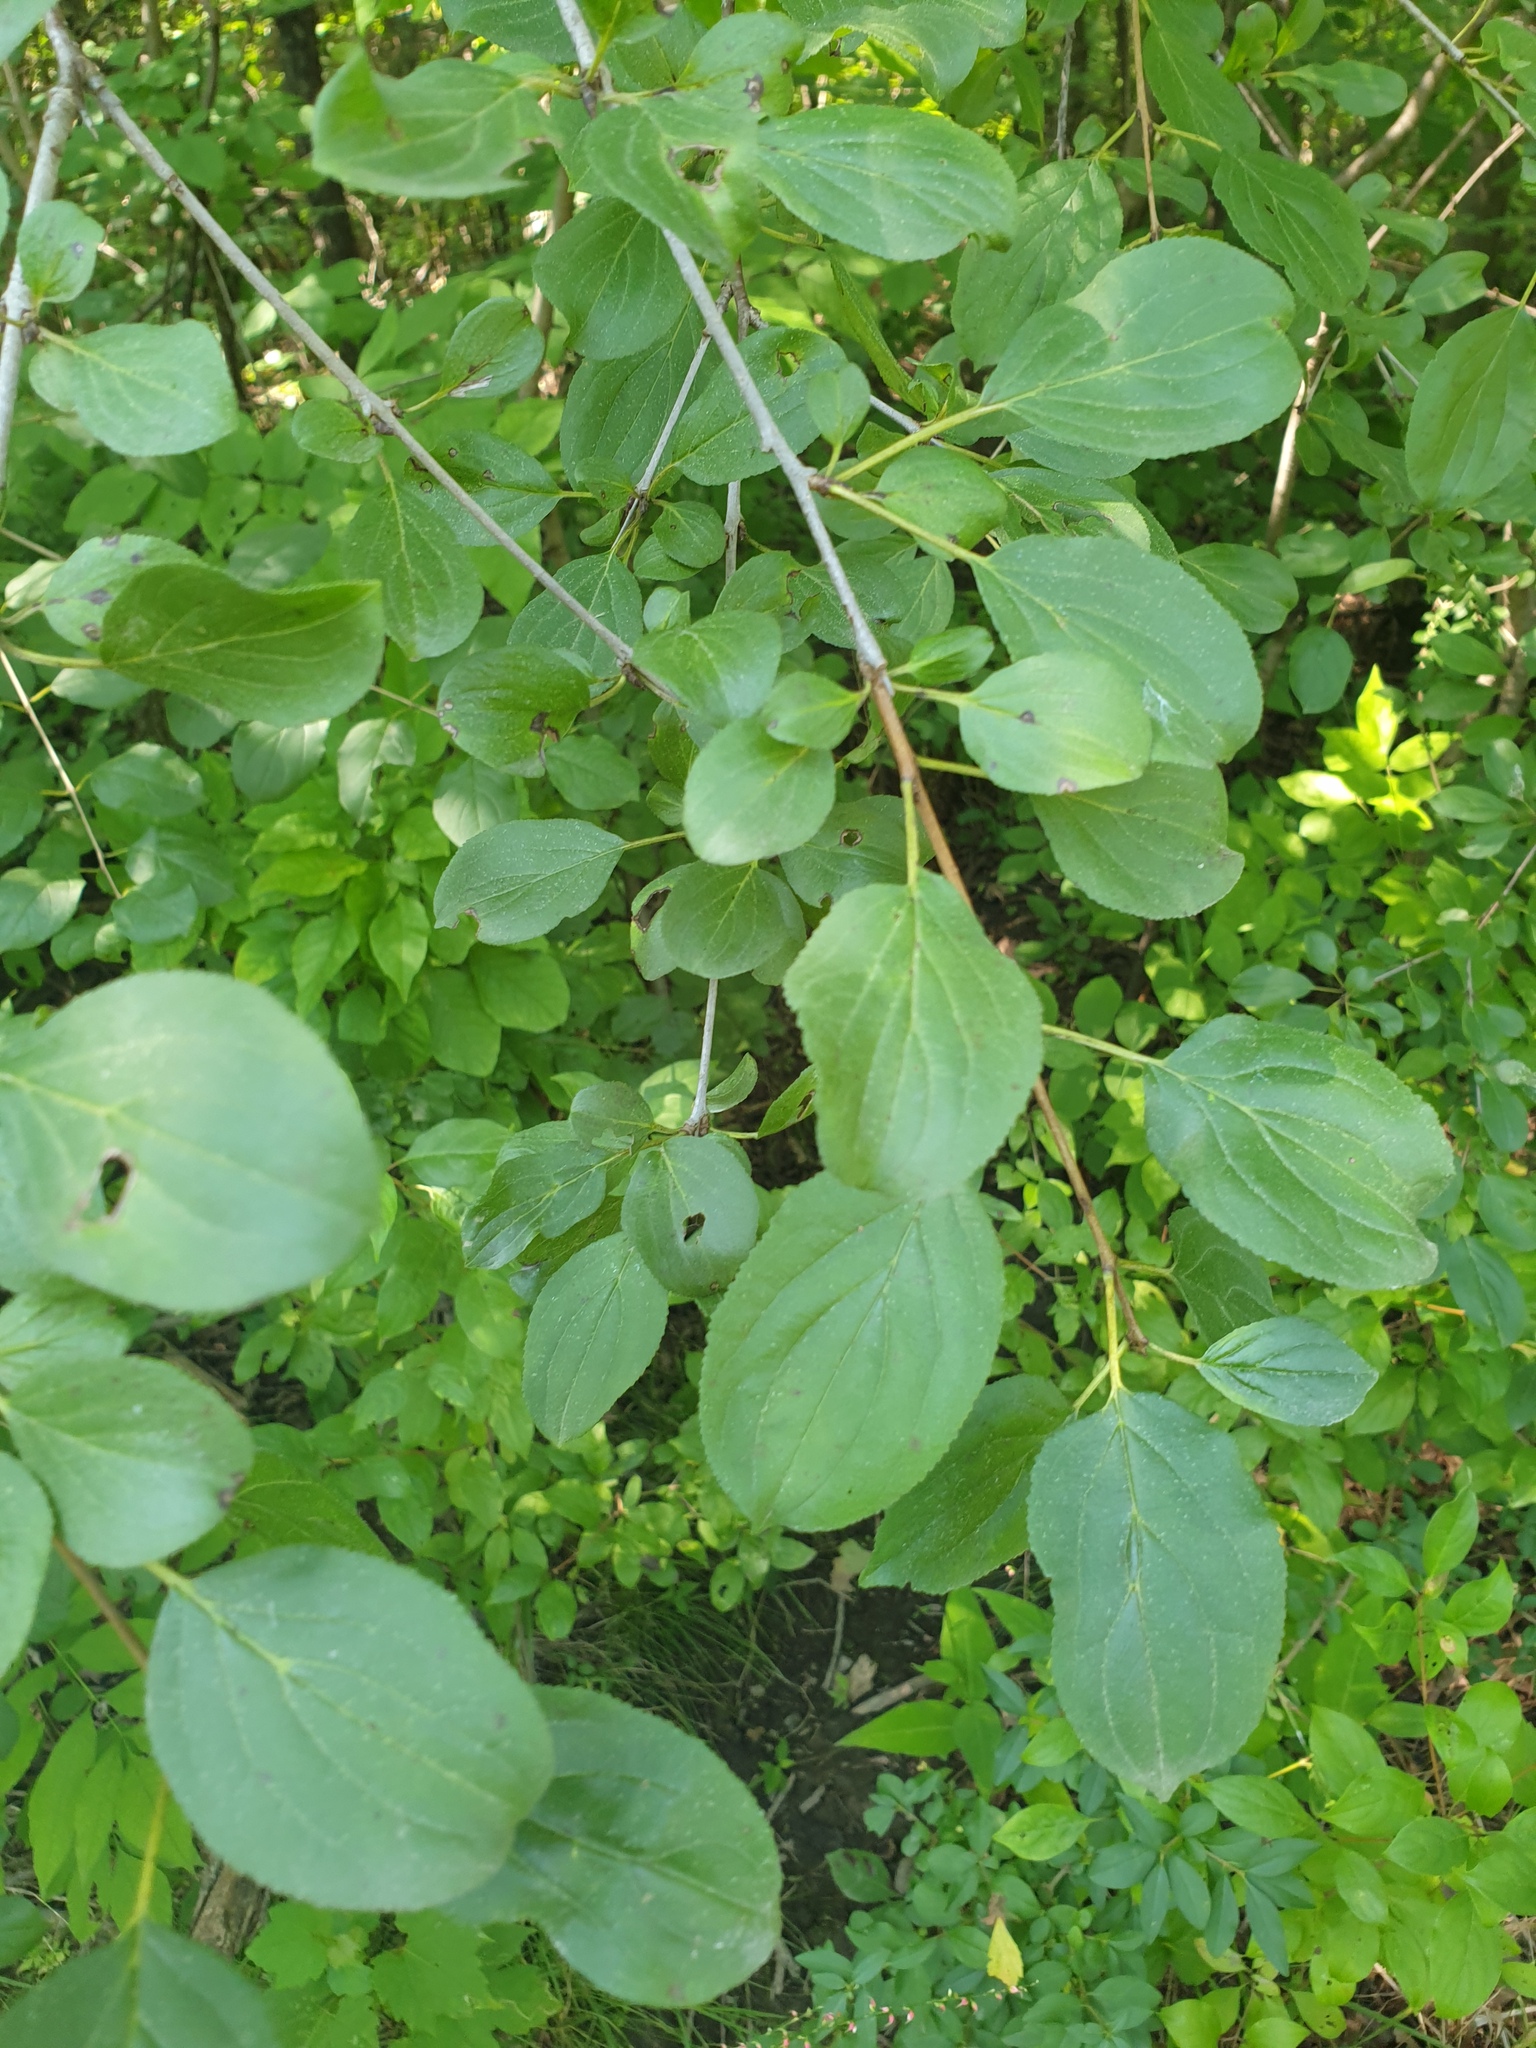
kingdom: Plantae
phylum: Tracheophyta
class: Magnoliopsida
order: Rosales
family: Rhamnaceae
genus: Rhamnus
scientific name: Rhamnus cathartica
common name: Common buckthorn
